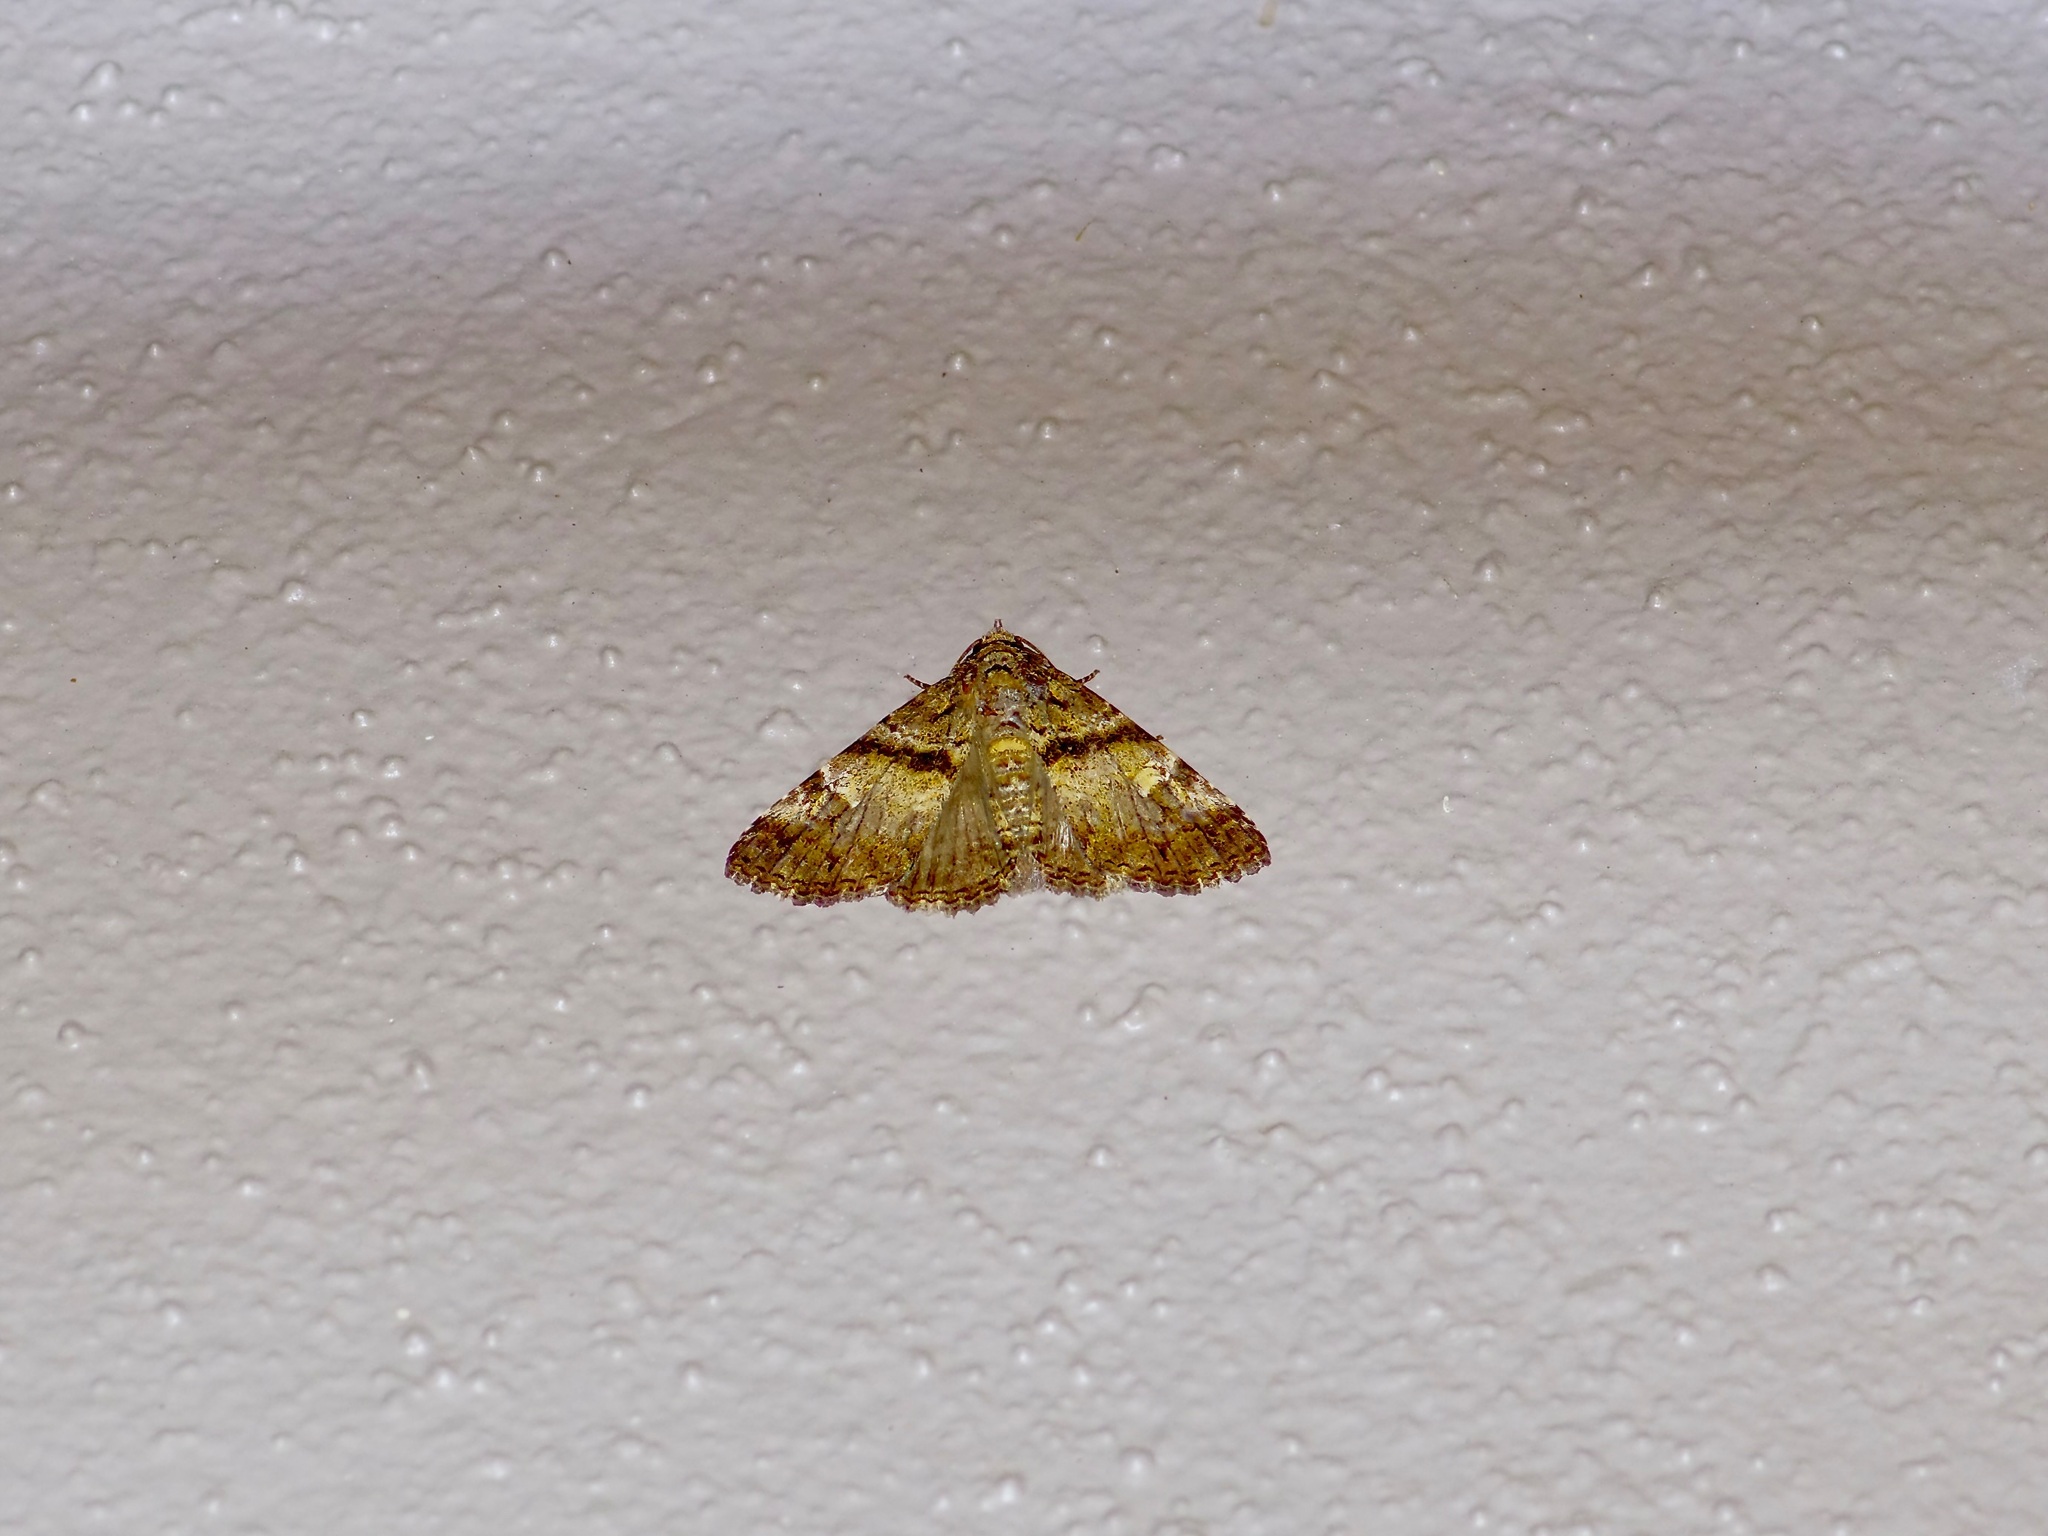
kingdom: Animalia
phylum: Arthropoda
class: Insecta
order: Lepidoptera
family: Erebidae
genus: Metria
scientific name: Metria amella
